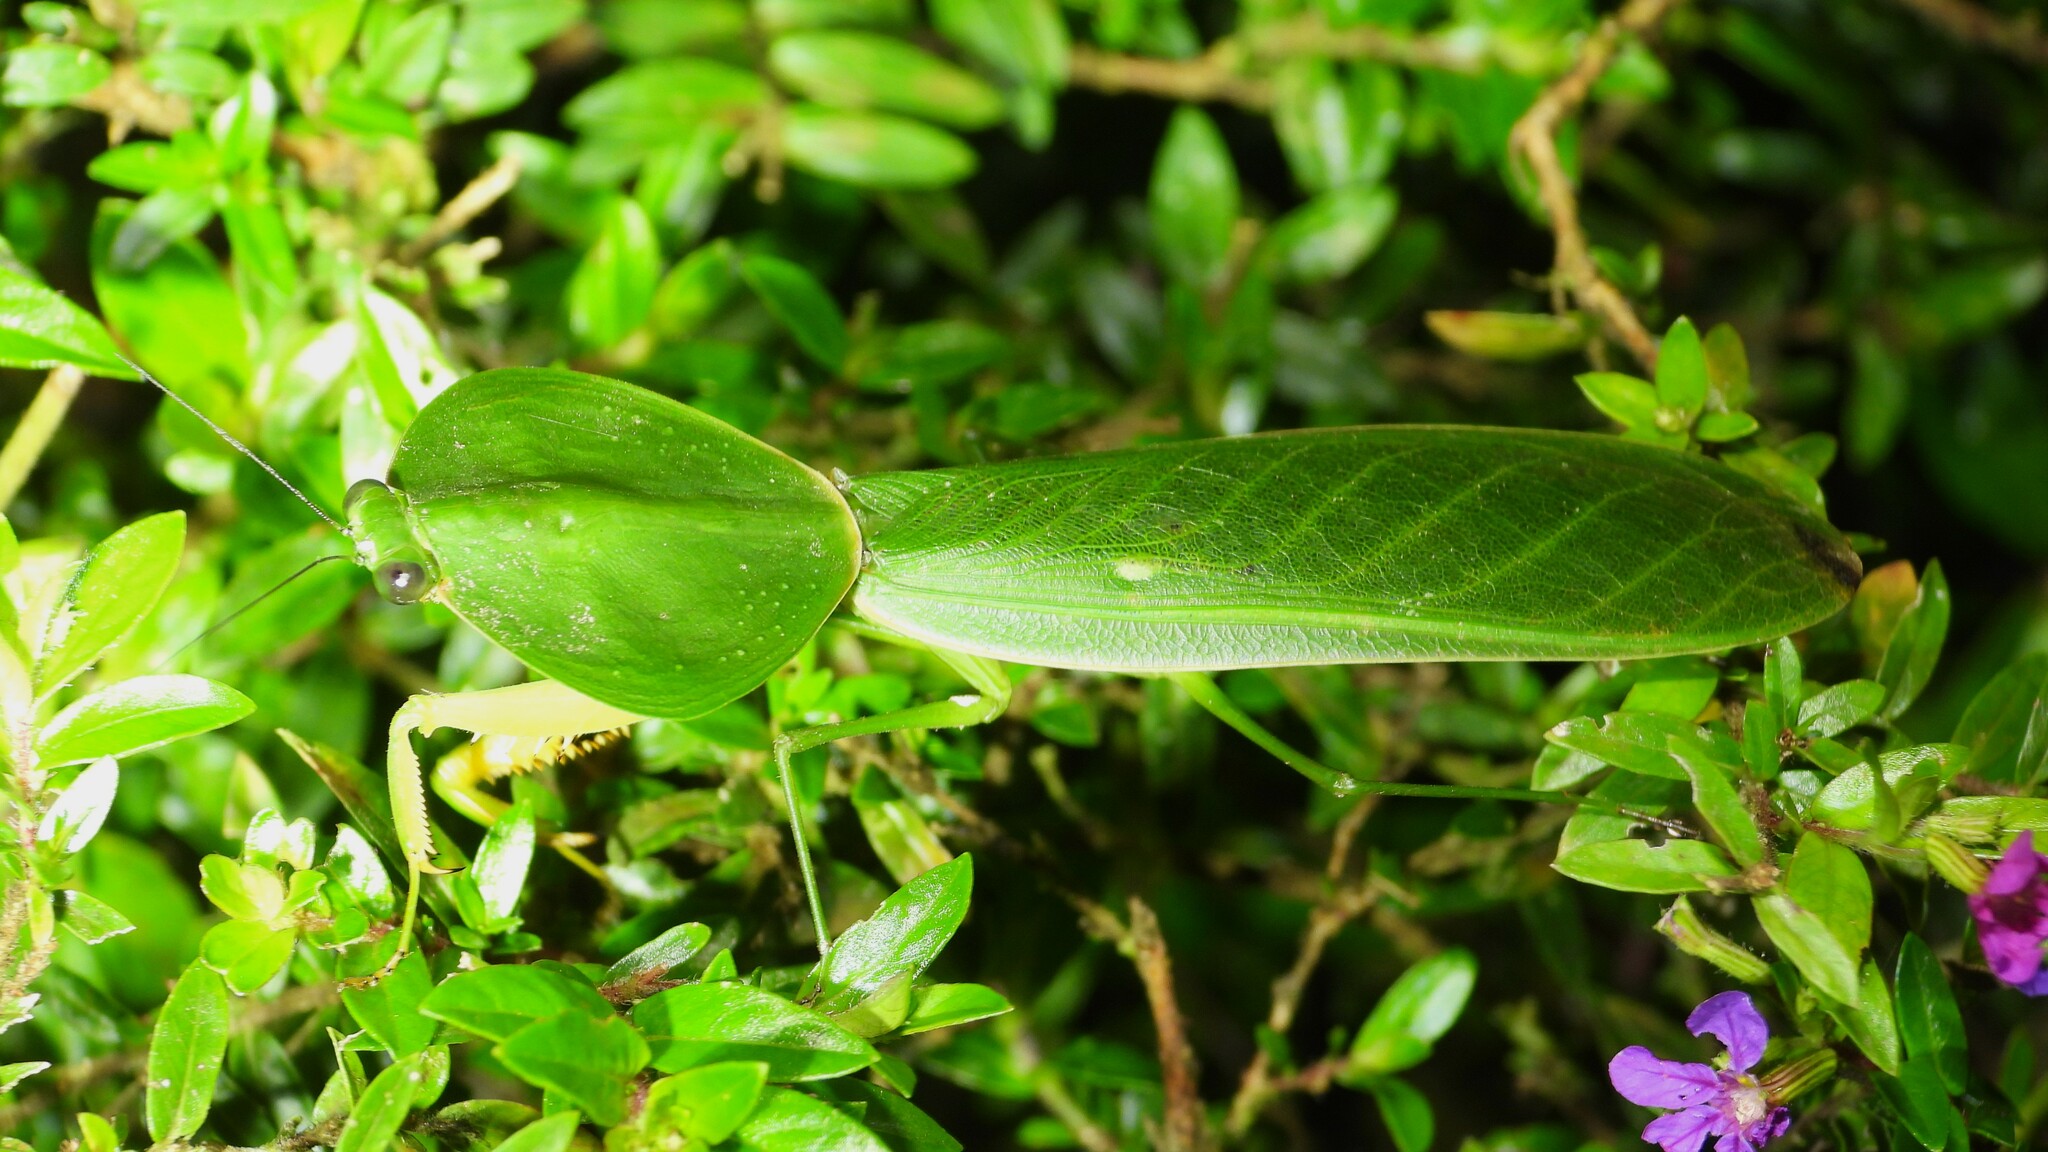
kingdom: Animalia
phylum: Arthropoda
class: Insecta
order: Mantodea
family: Mantidae
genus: Choeradodis
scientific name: Choeradodis rhombicollis
